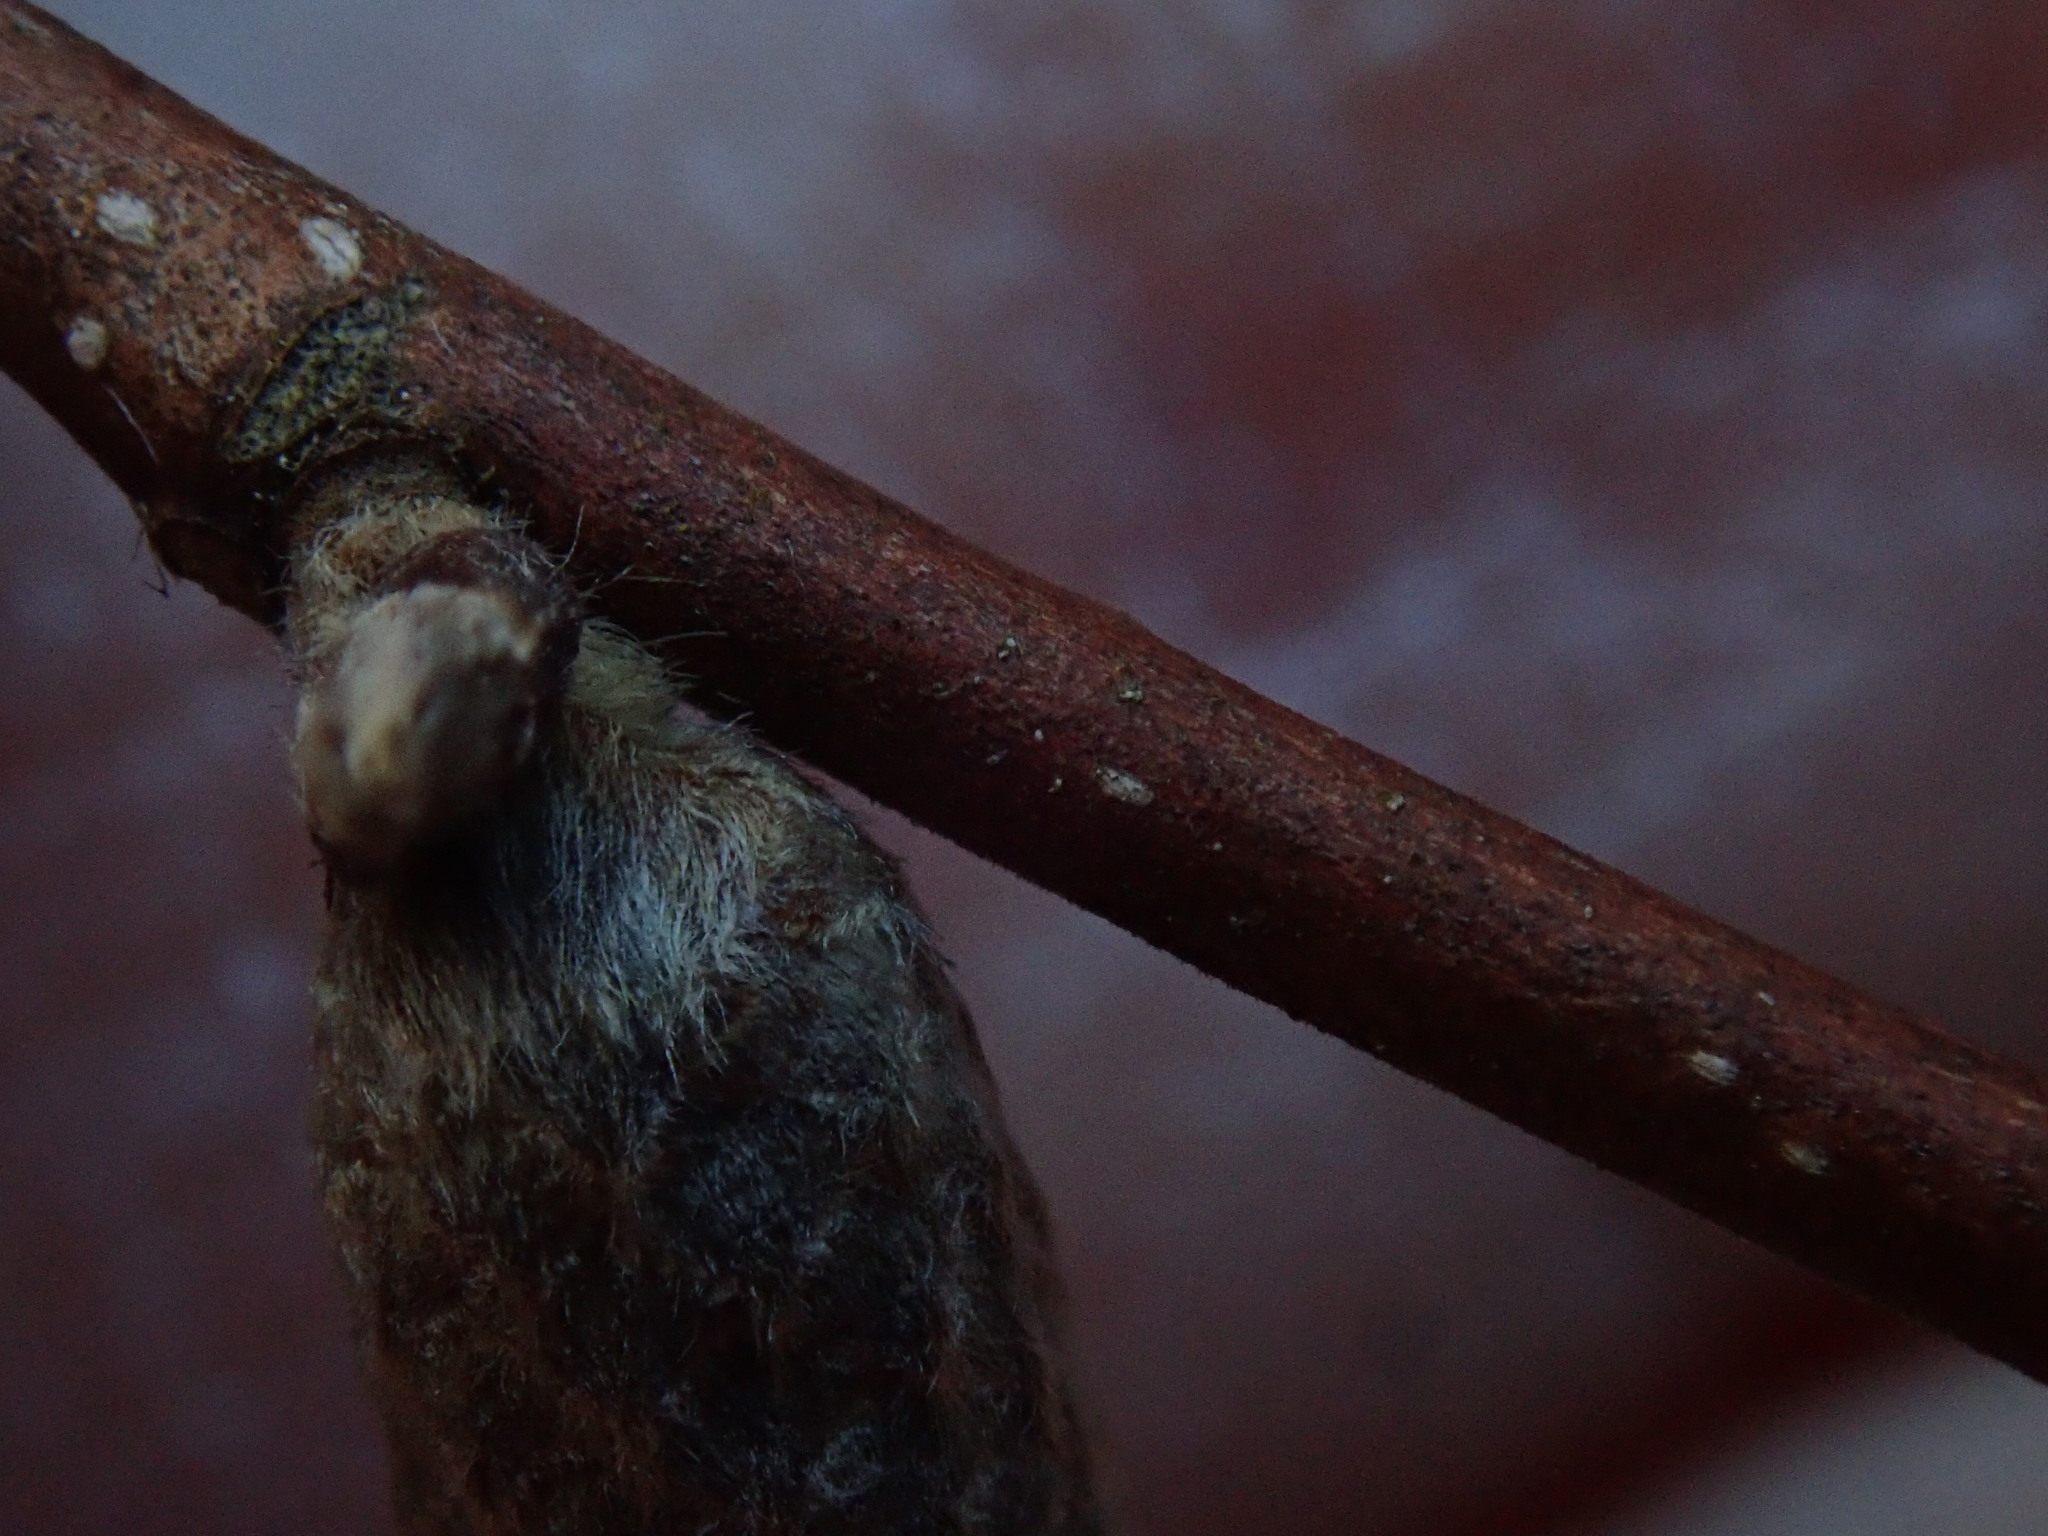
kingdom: Plantae
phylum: Tracheophyta
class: Magnoliopsida
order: Fagales
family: Betulaceae
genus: Corylus
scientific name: Corylus cornuta
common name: Beaked hazel
